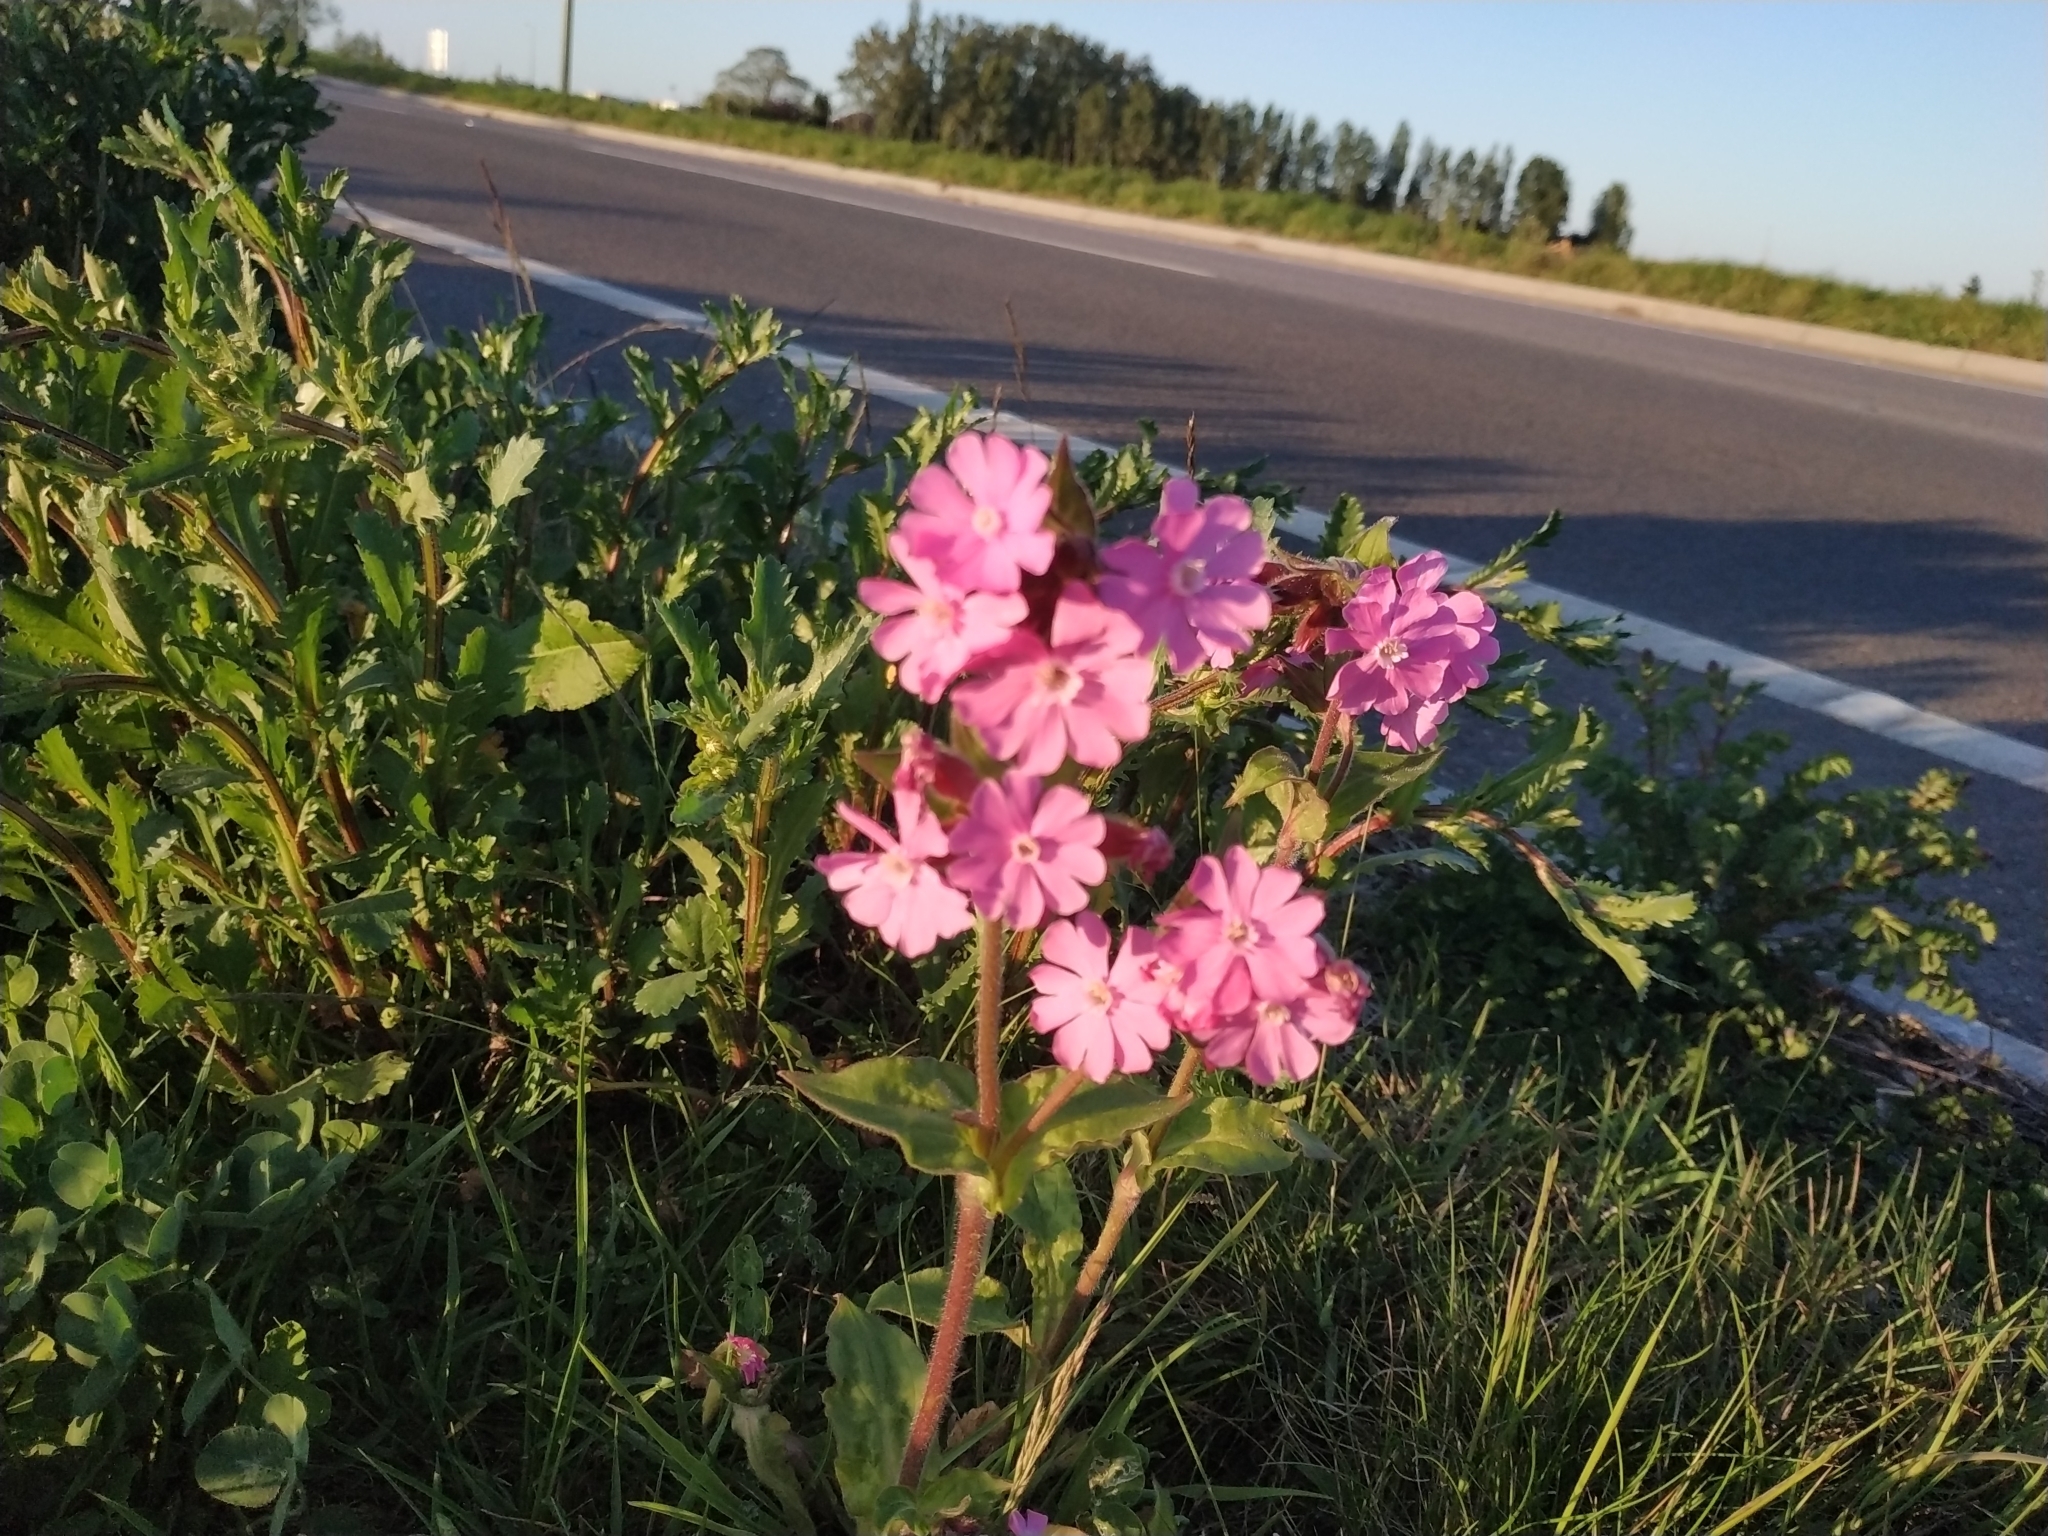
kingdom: Plantae
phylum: Tracheophyta
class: Magnoliopsida
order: Caryophyllales
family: Caryophyllaceae
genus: Silene
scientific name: Silene dioica
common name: Red campion
